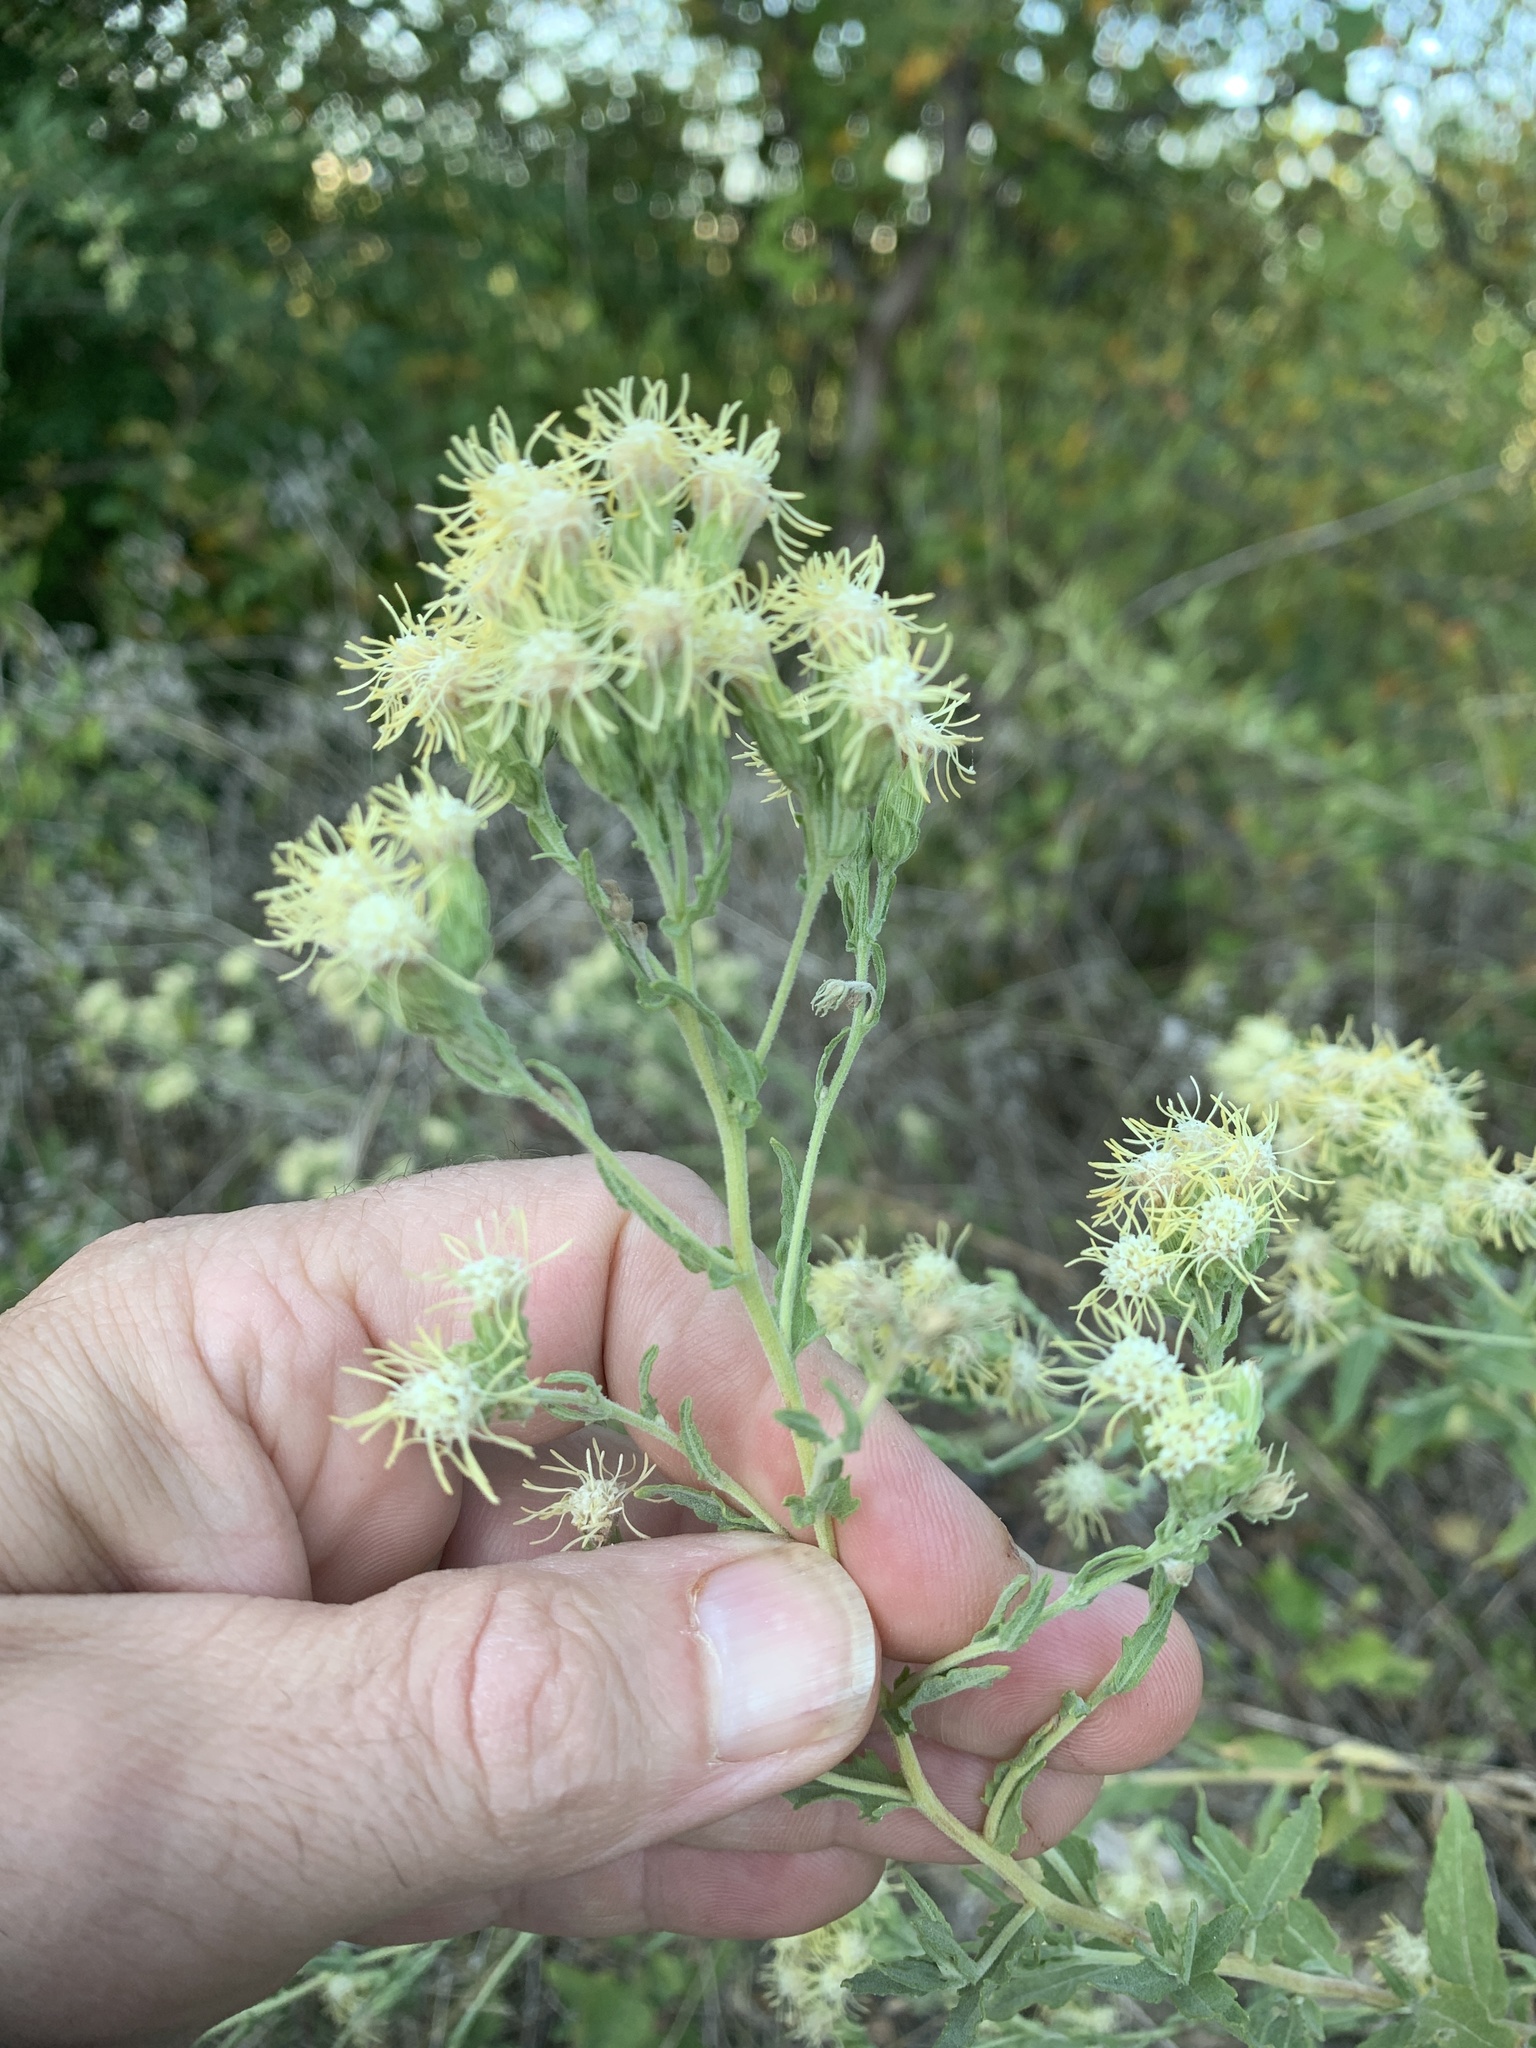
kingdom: Plantae
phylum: Tracheophyta
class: Magnoliopsida
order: Asterales
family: Asteraceae
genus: Brickellia
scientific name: Brickellia eupatorioides
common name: False boneset
